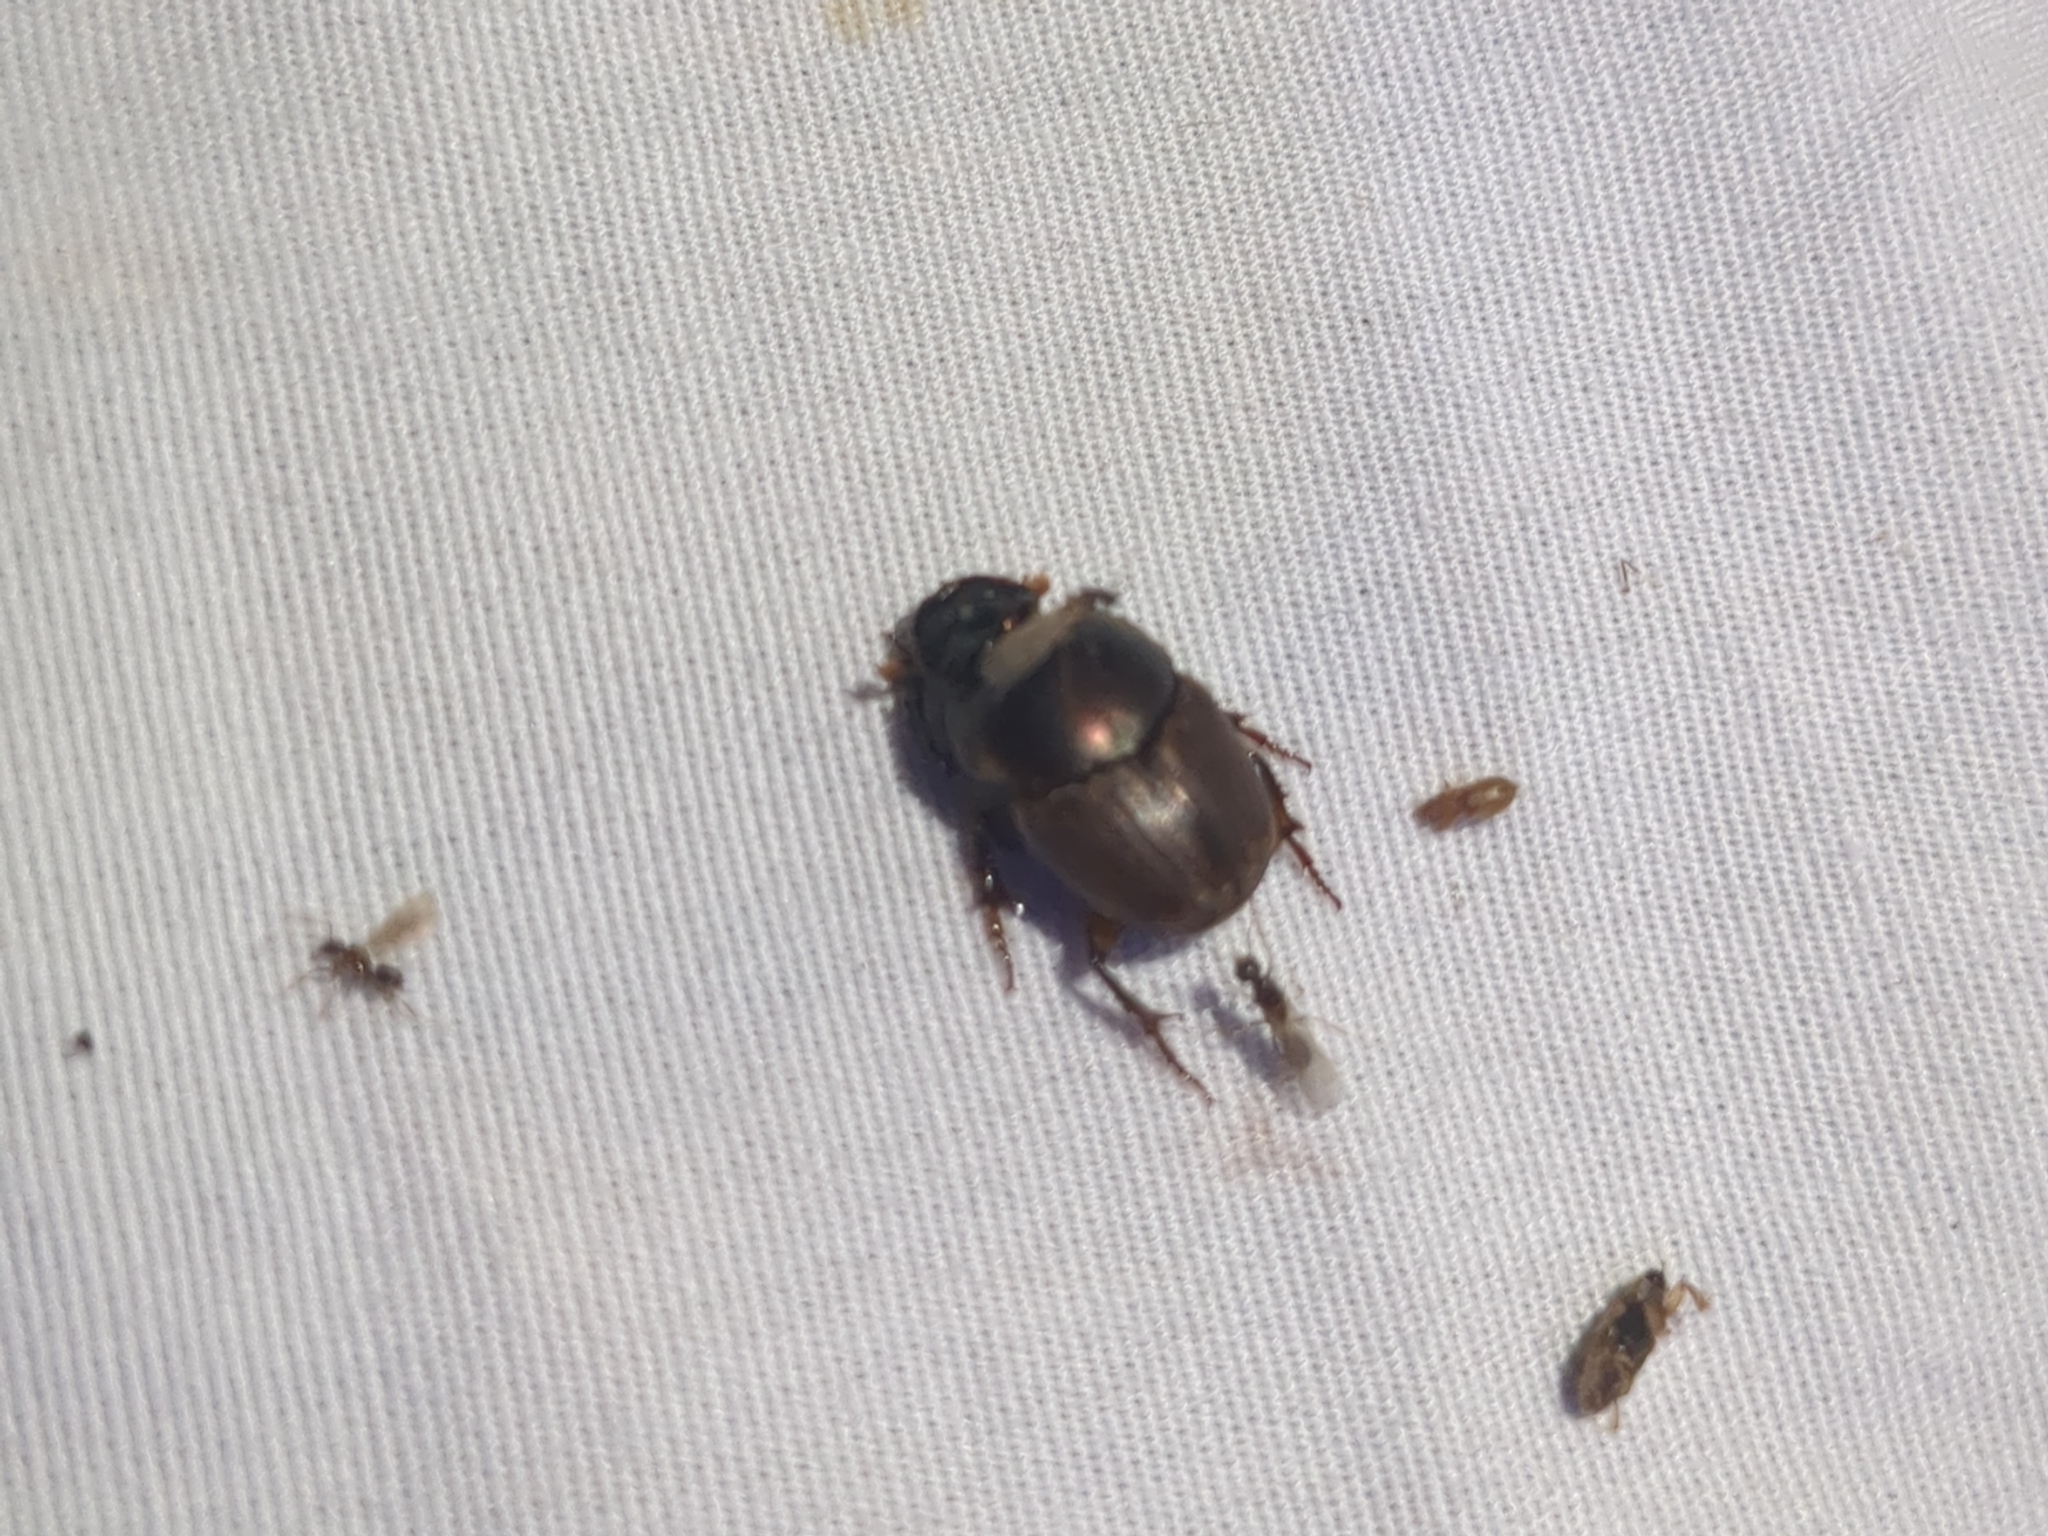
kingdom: Animalia
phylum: Arthropoda
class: Insecta
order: Coleoptera
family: Scarabaeidae
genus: Digitonthophagus
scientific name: Digitonthophagus gazella
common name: Brown dung beetle
